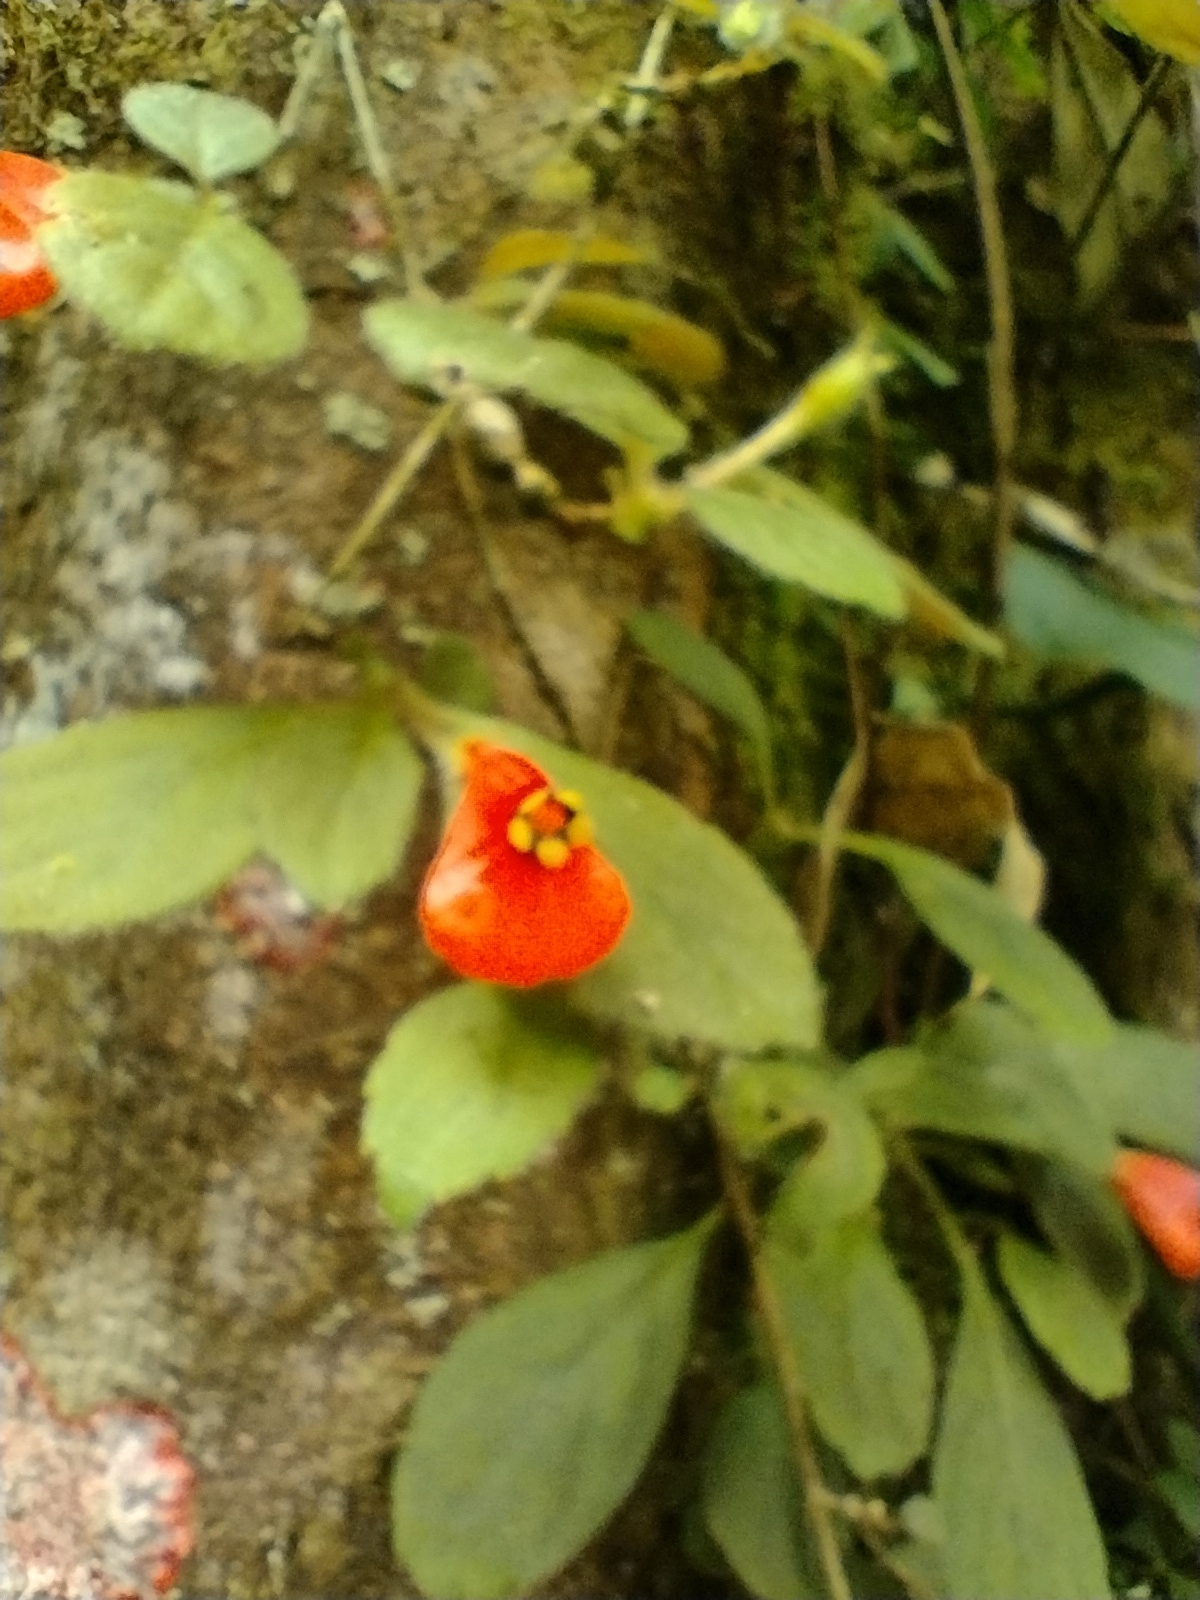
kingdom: Plantae
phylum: Tracheophyta
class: Magnoliopsida
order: Lamiales
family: Gesneriaceae
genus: Pachycaulos
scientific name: Pachycaulos nummularia
